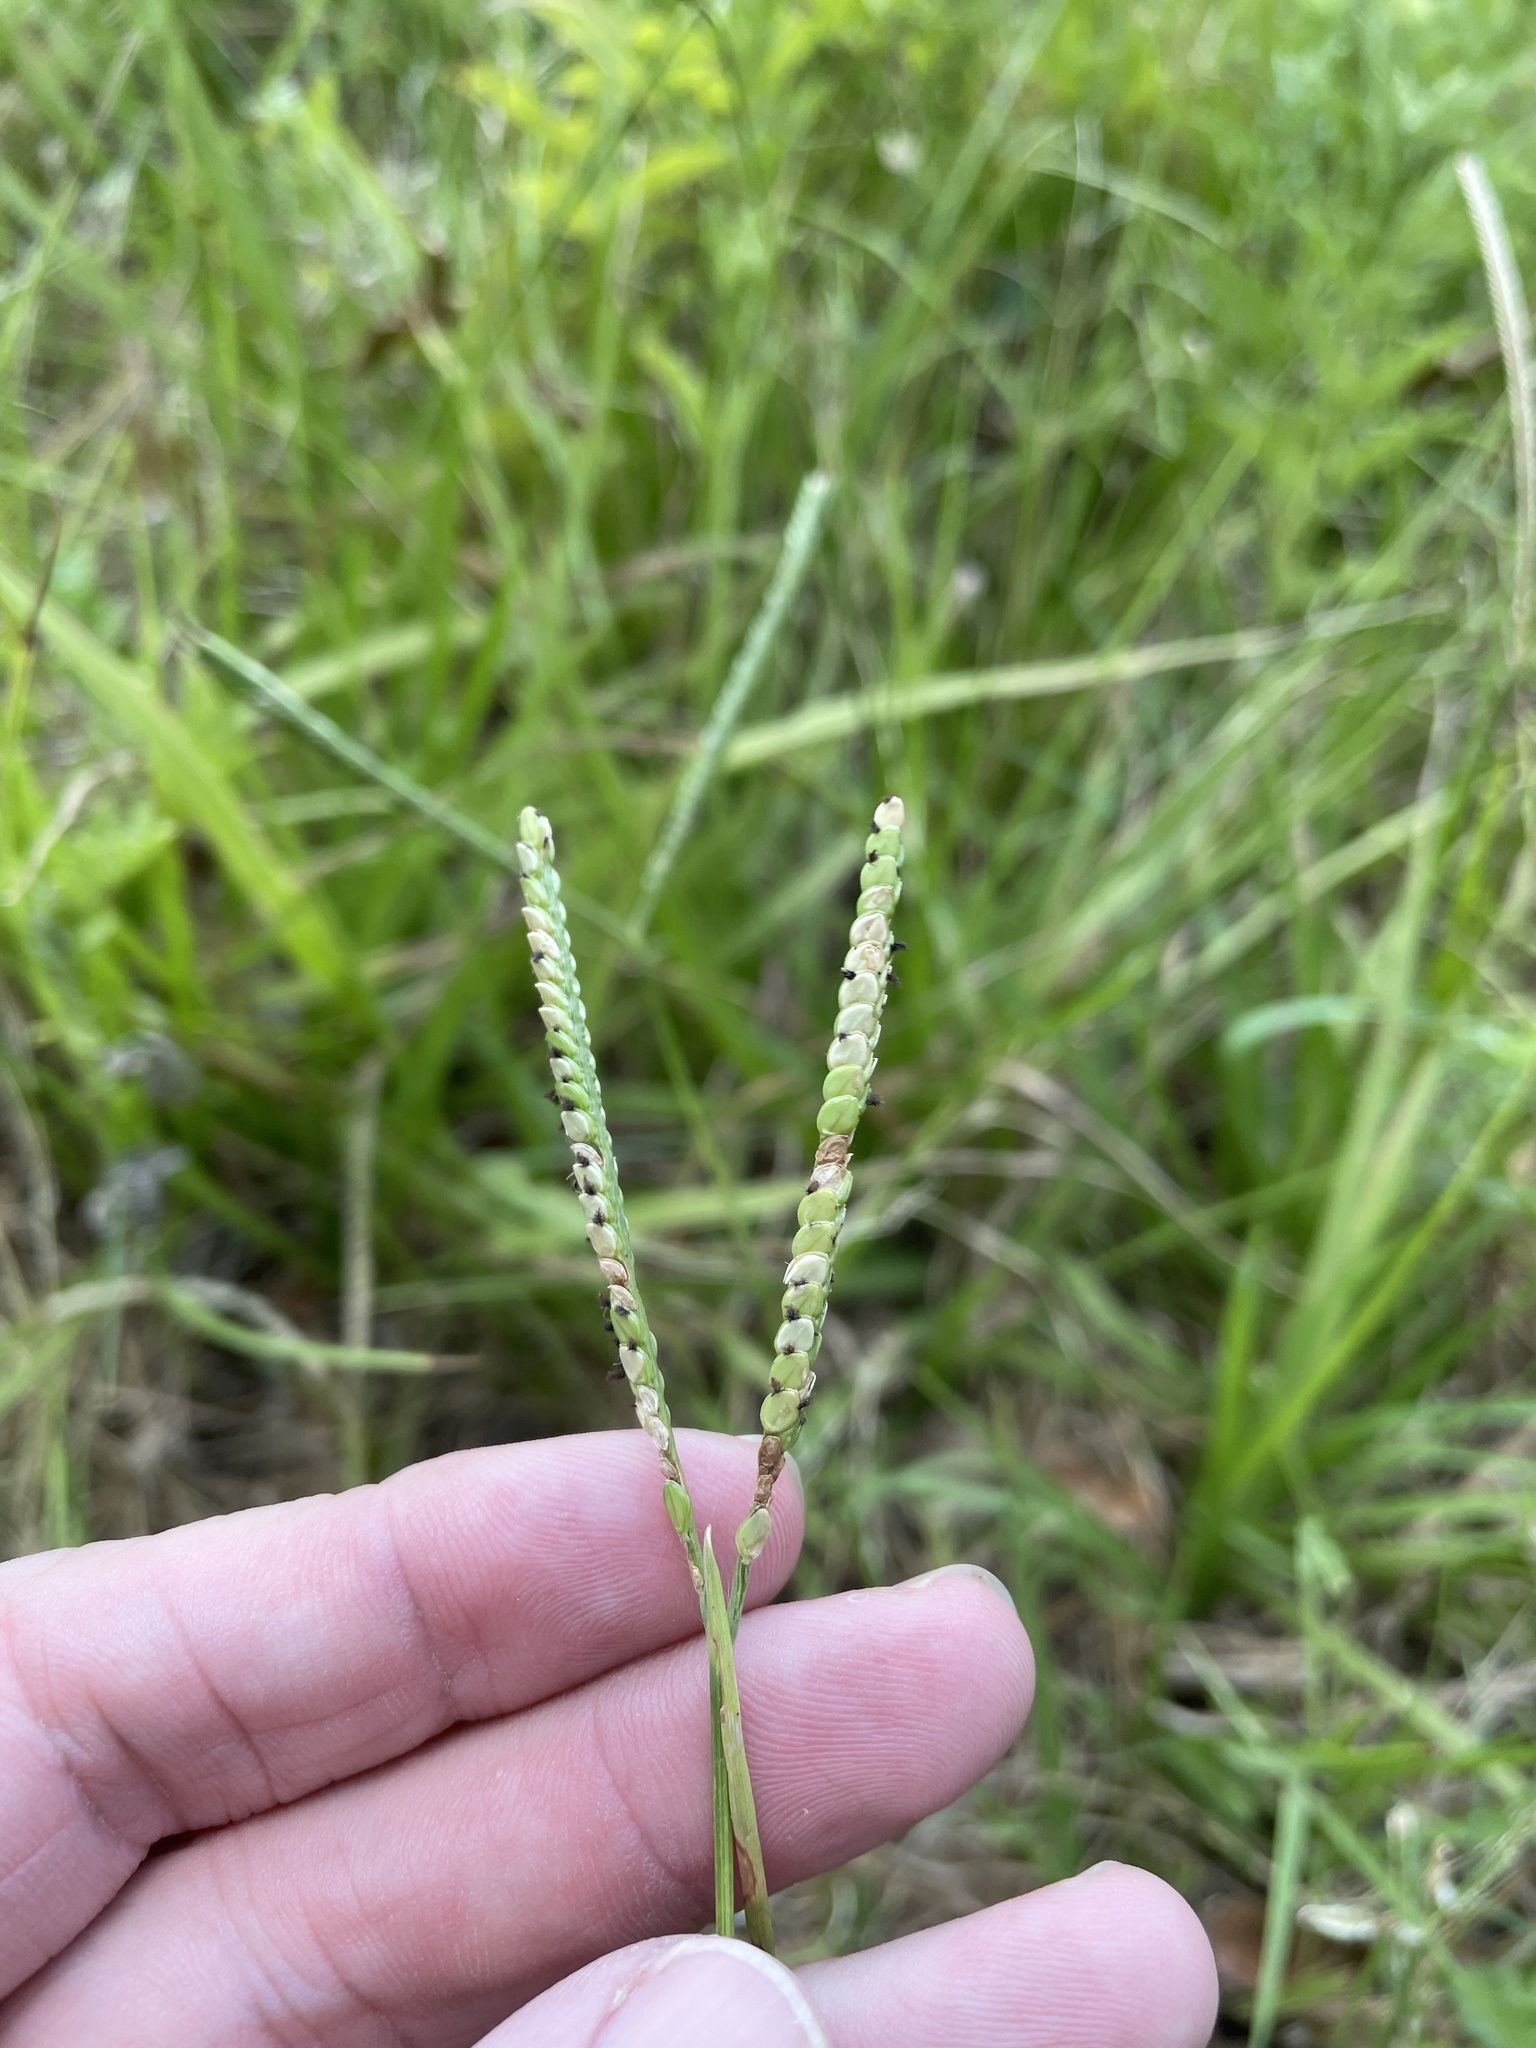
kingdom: Plantae
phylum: Tracheophyta
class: Liliopsida
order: Poales
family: Poaceae
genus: Paspalum
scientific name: Paspalum notatum
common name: Bahiagrass
